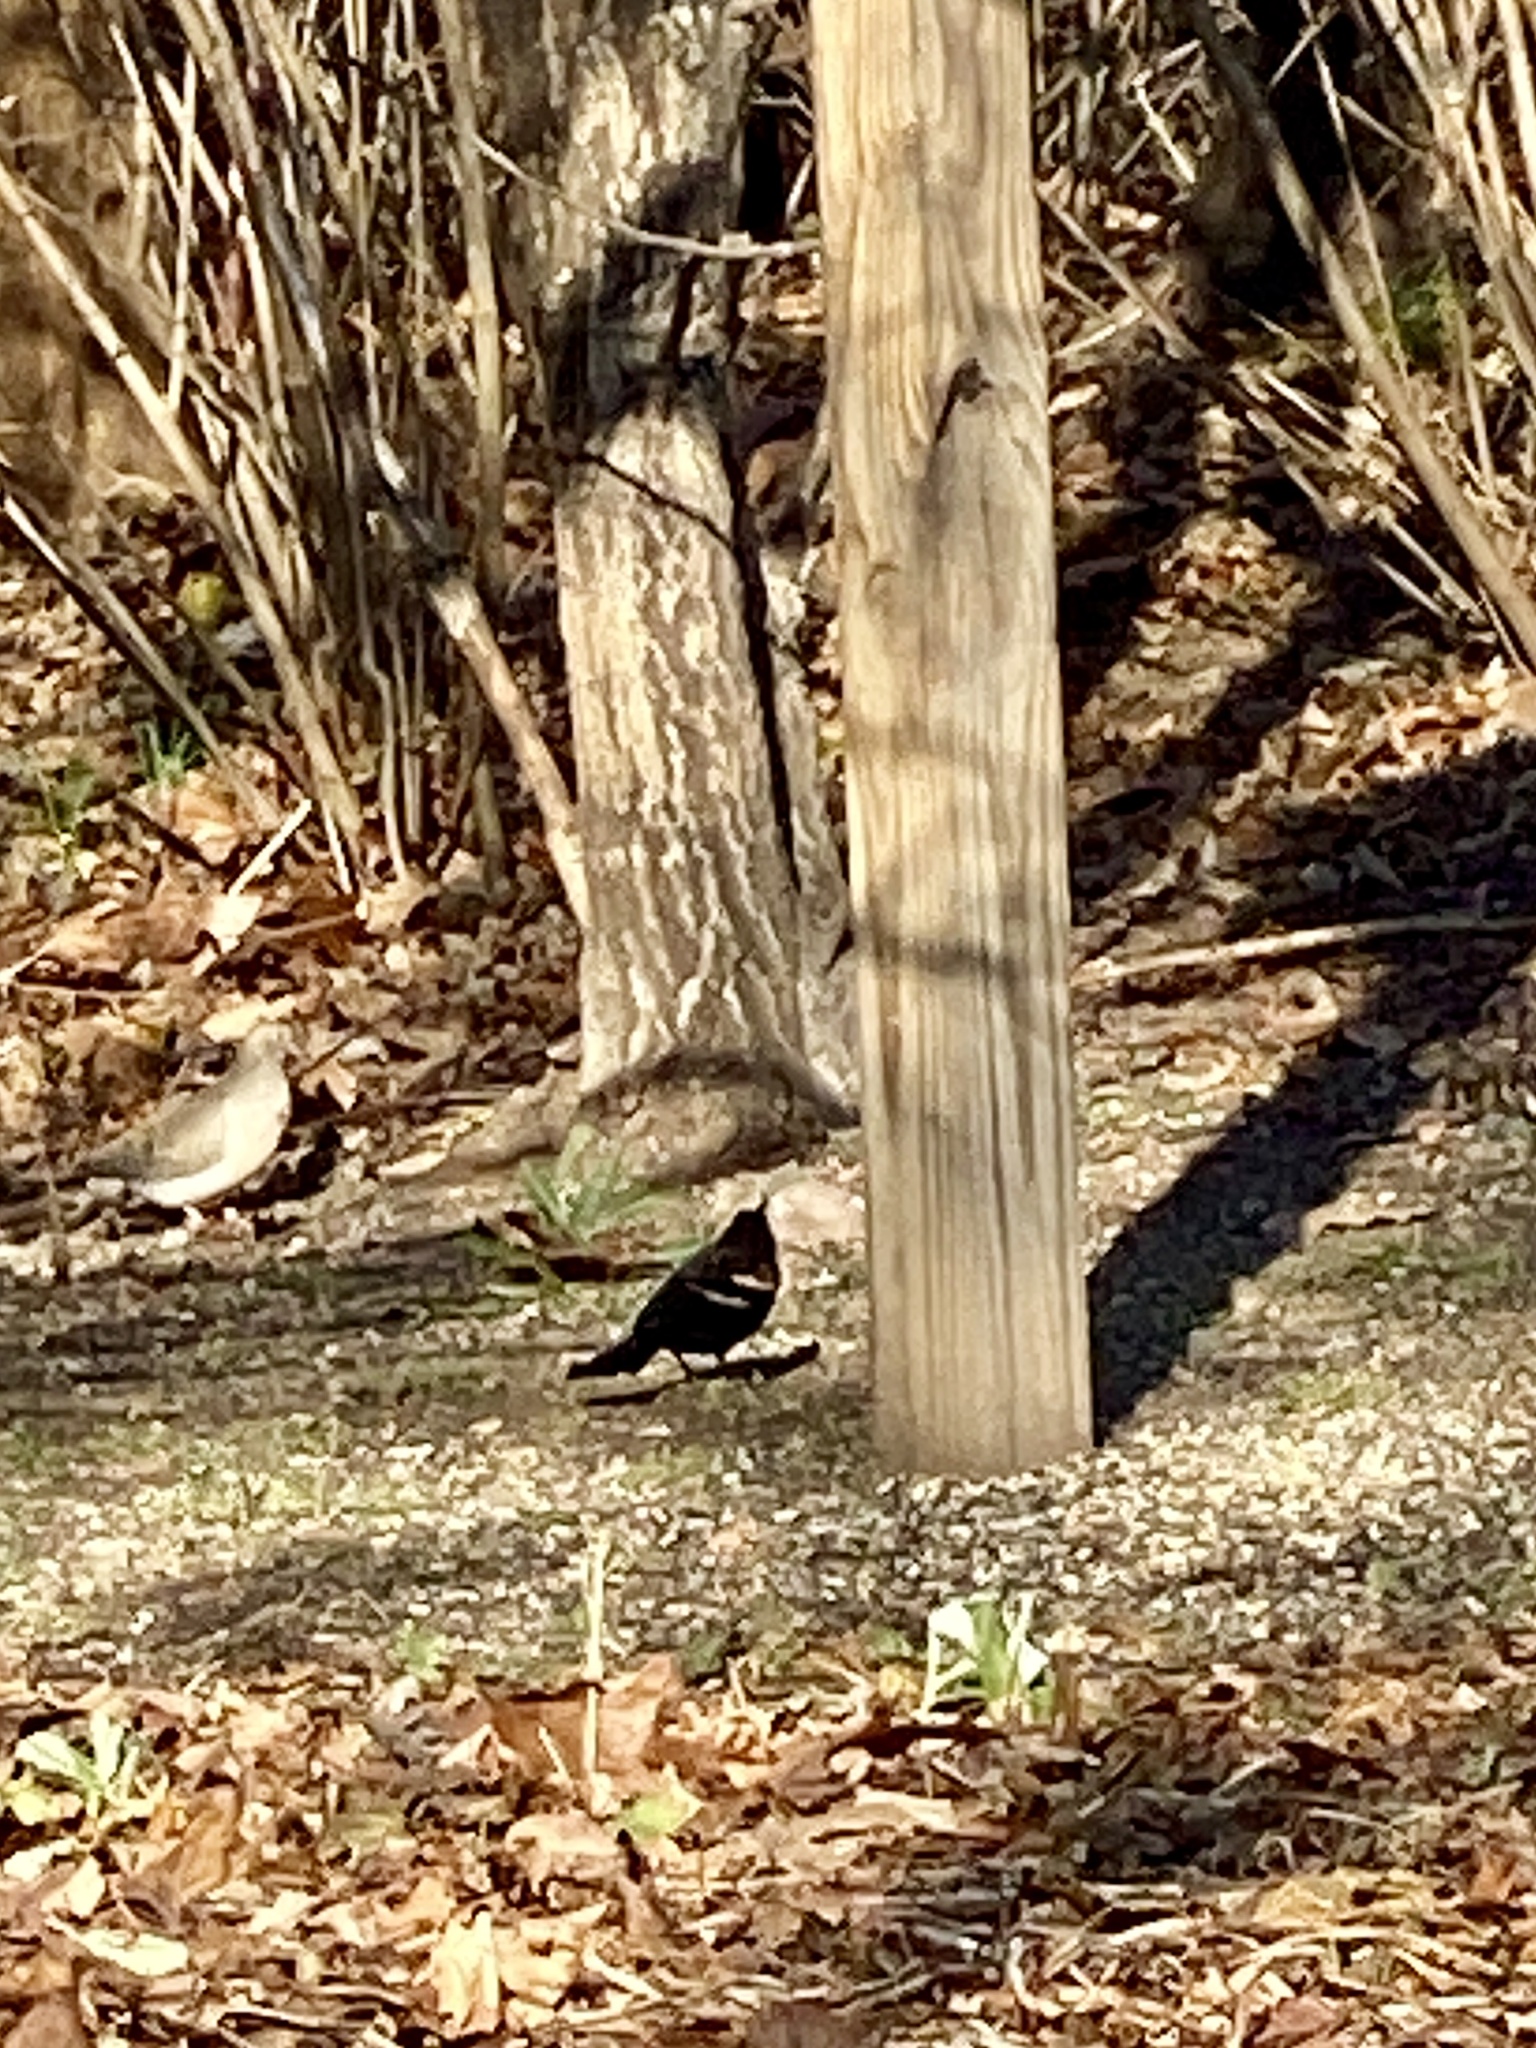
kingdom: Animalia
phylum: Chordata
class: Aves
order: Passeriformes
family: Icteridae
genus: Agelaius
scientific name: Agelaius phoeniceus
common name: Red-winged blackbird
